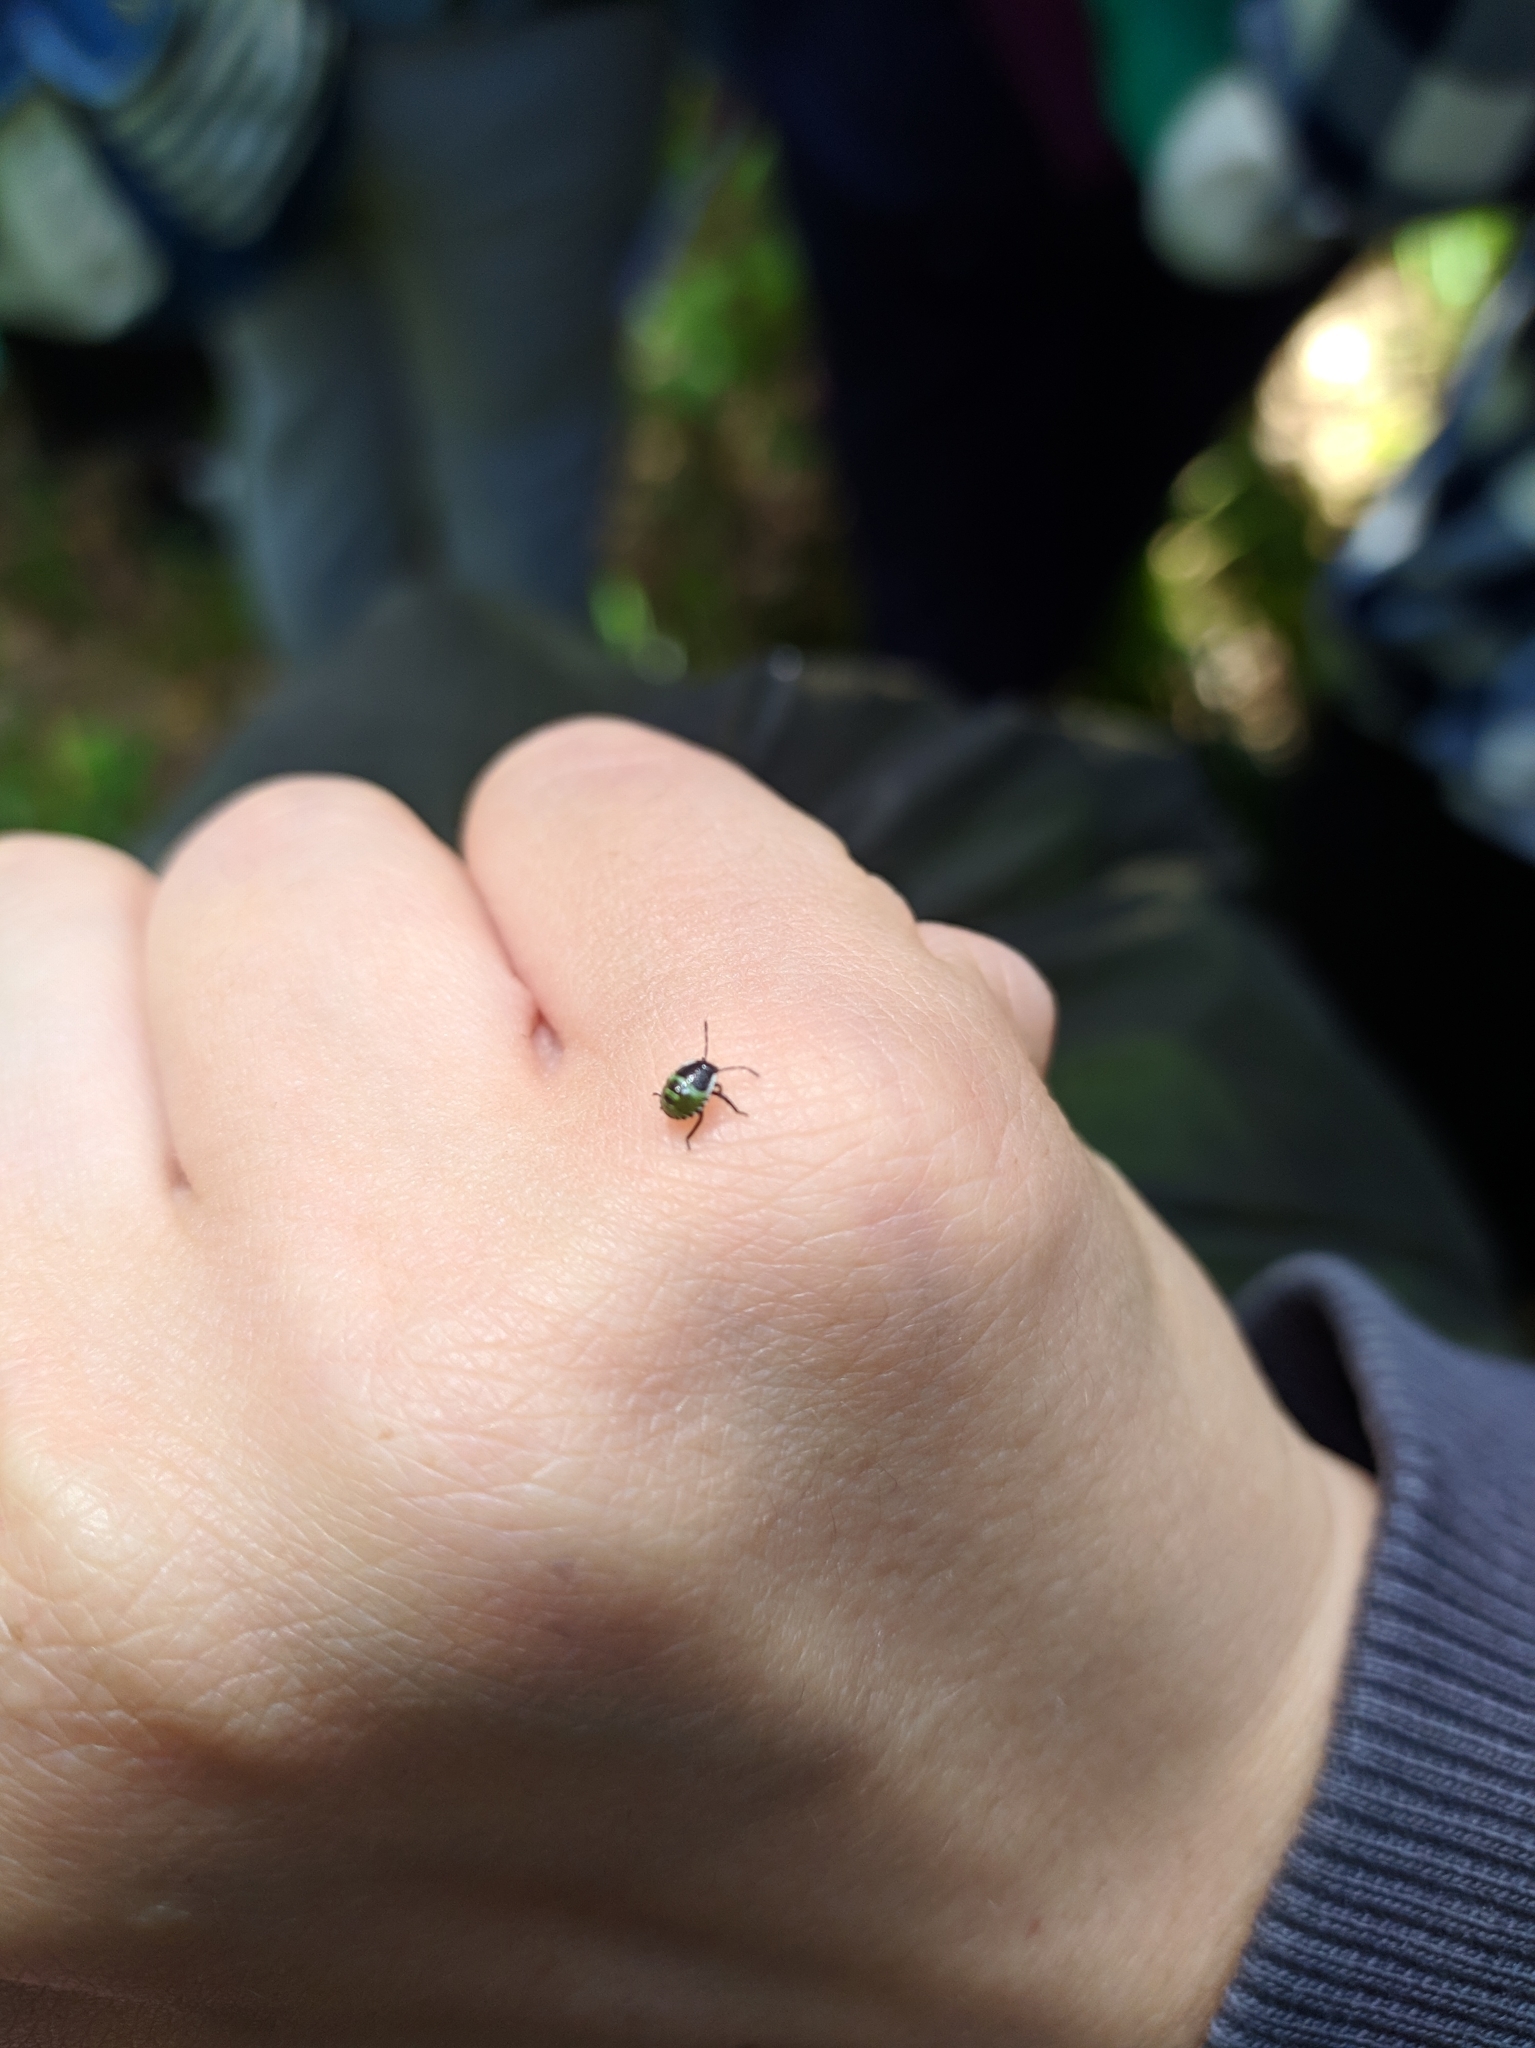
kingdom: Animalia
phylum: Arthropoda
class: Insecta
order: Hemiptera
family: Pentatomidae
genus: Palomena
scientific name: Palomena prasina
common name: Green shieldbug
